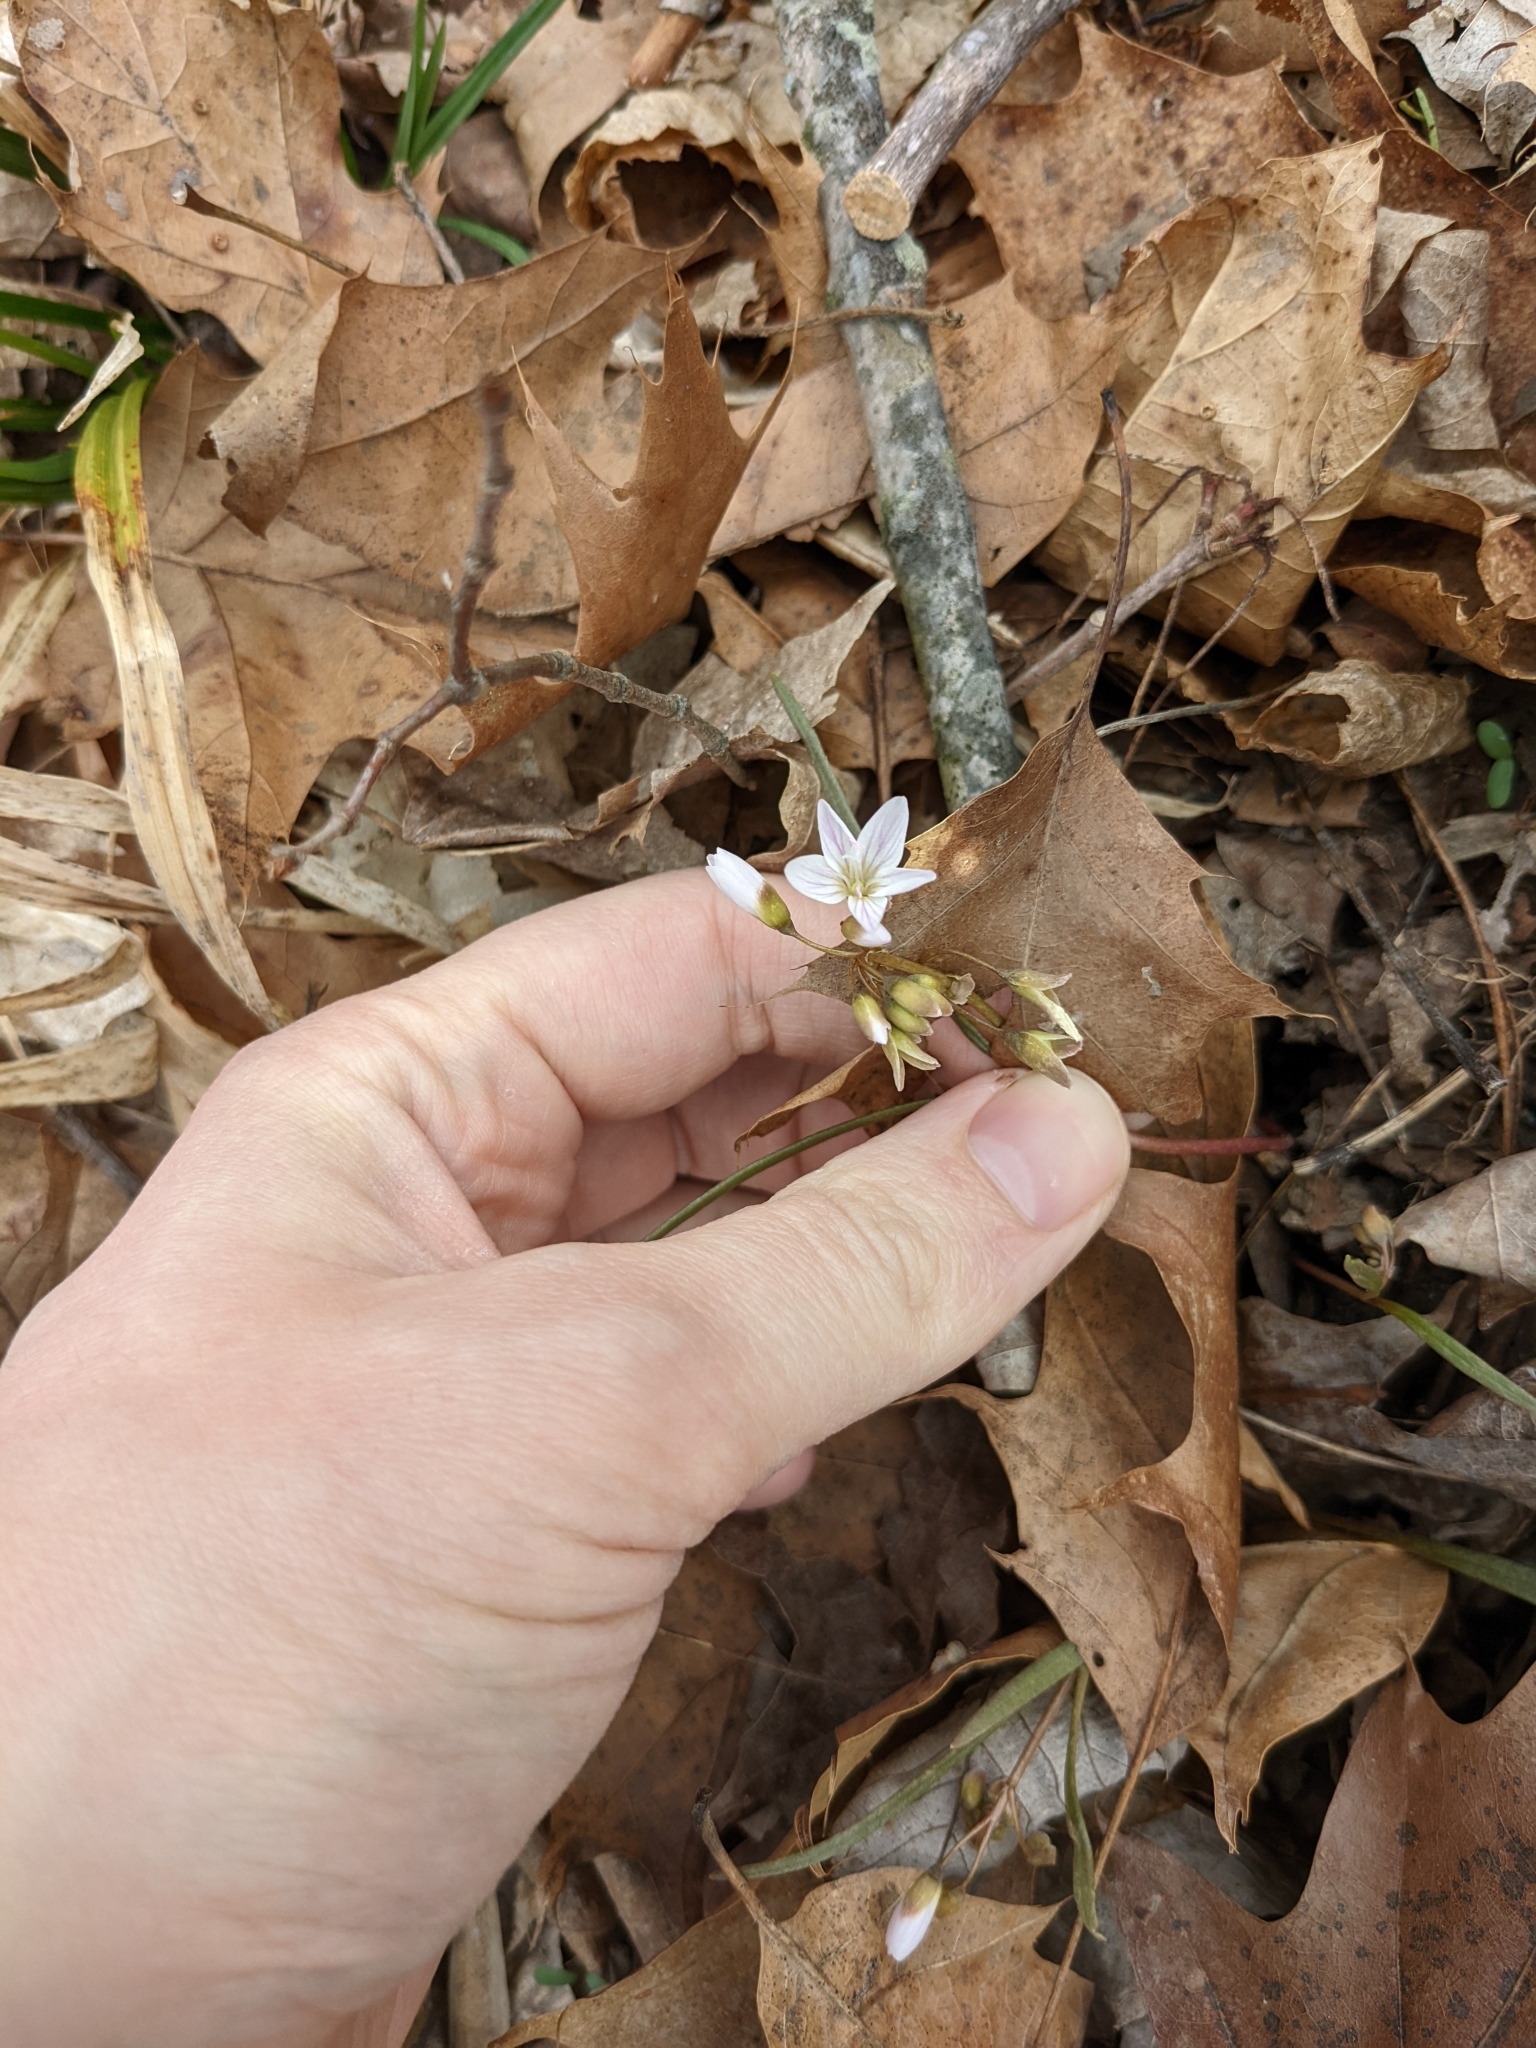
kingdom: Plantae
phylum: Tracheophyta
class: Magnoliopsida
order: Caryophyllales
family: Montiaceae
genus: Claytonia
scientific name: Claytonia virginica
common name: Virginia springbeauty
